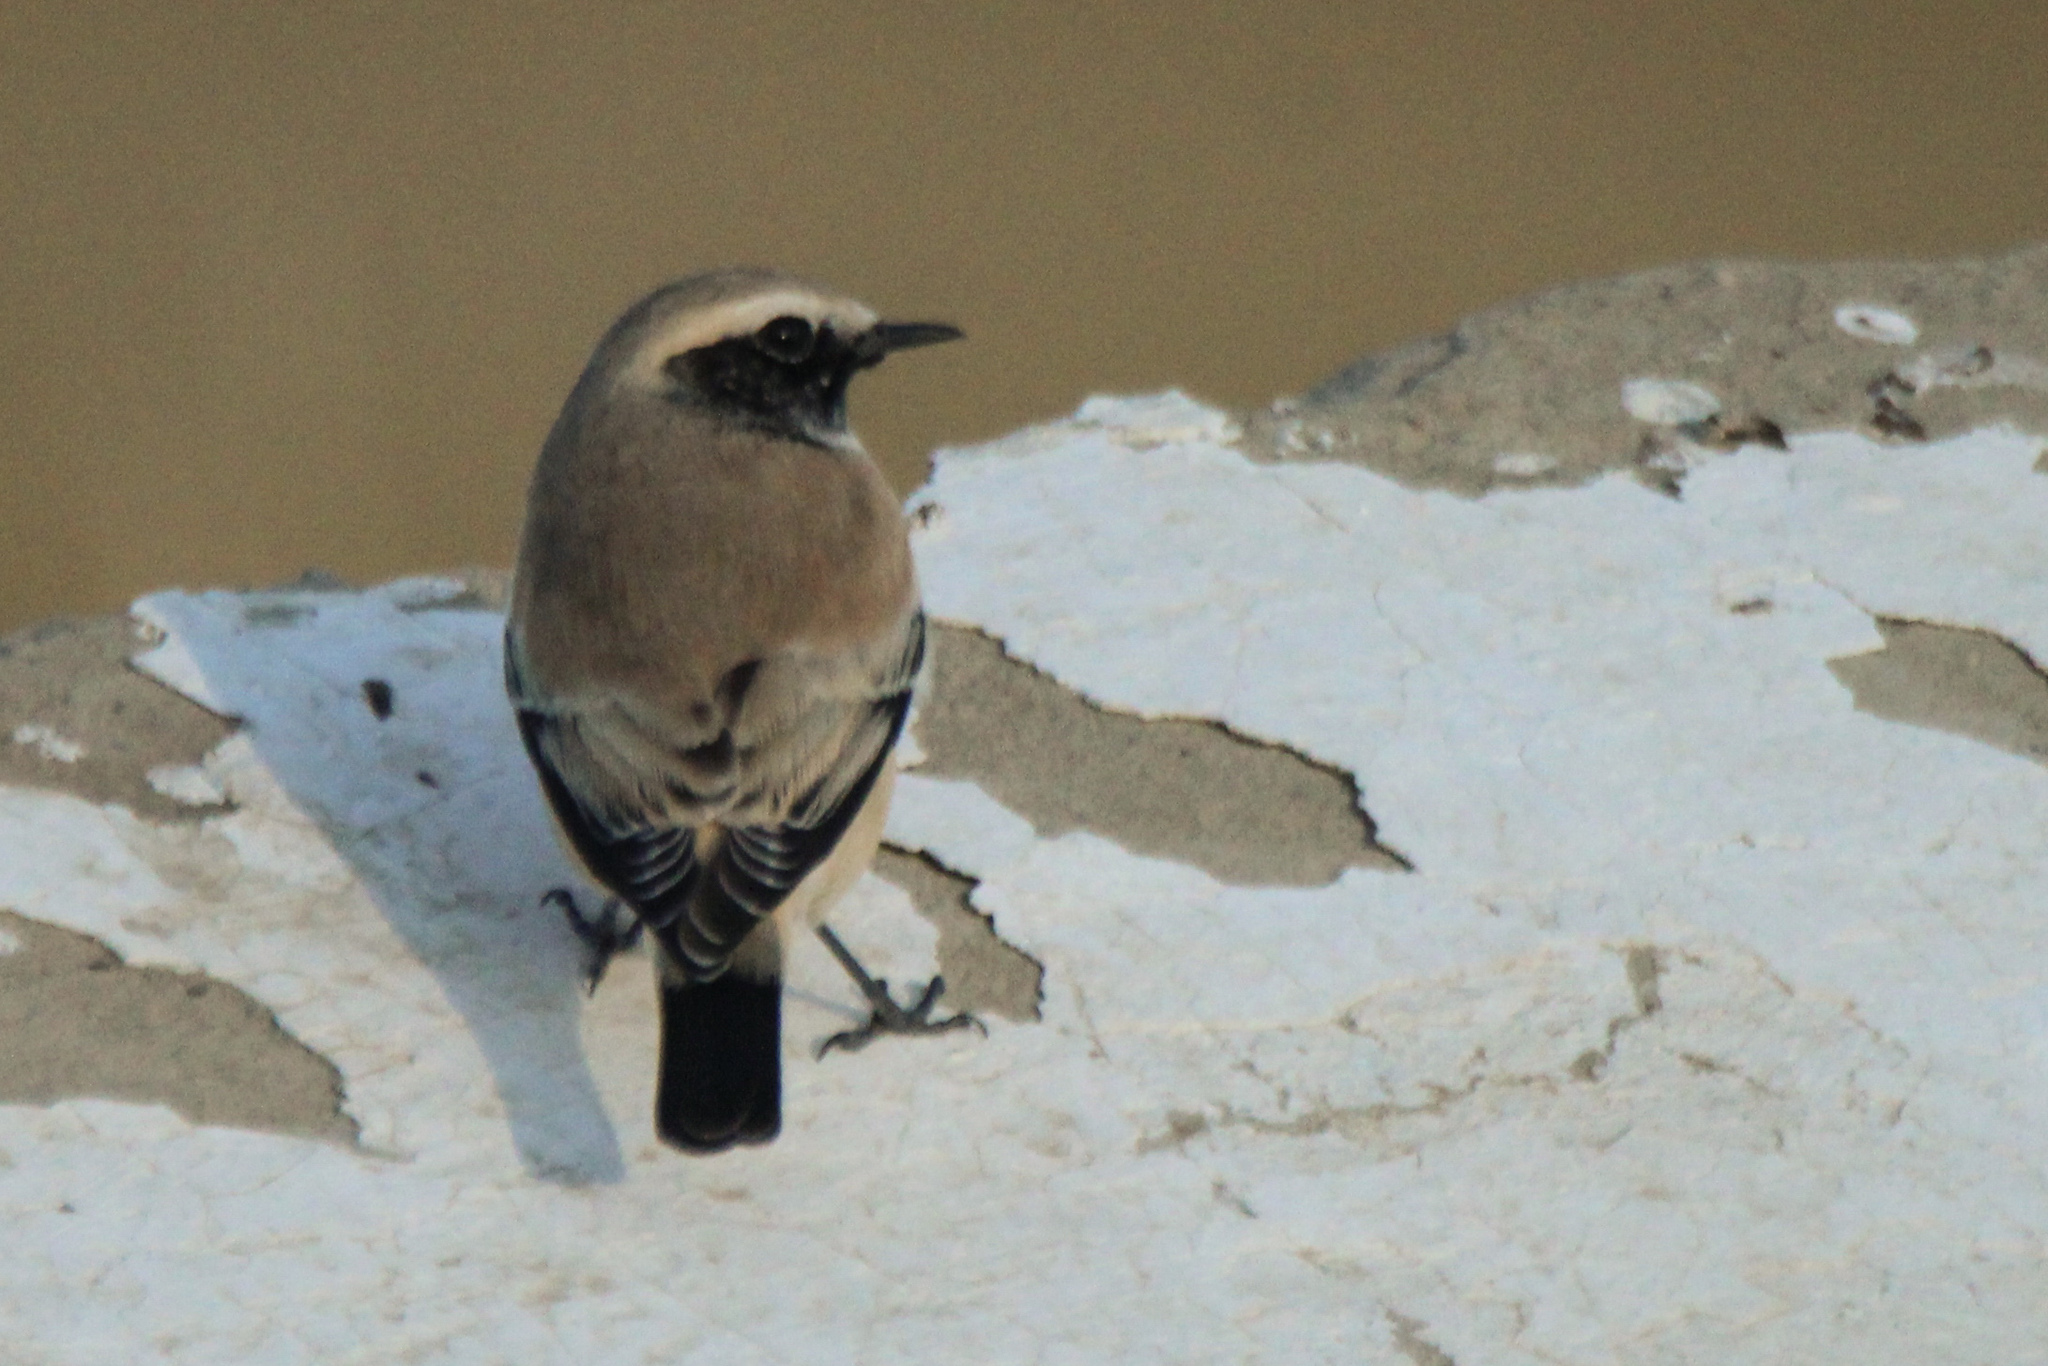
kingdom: Animalia
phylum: Chordata
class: Aves
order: Passeriformes
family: Muscicapidae
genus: Oenanthe
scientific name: Oenanthe deserti
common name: Desert wheatear
